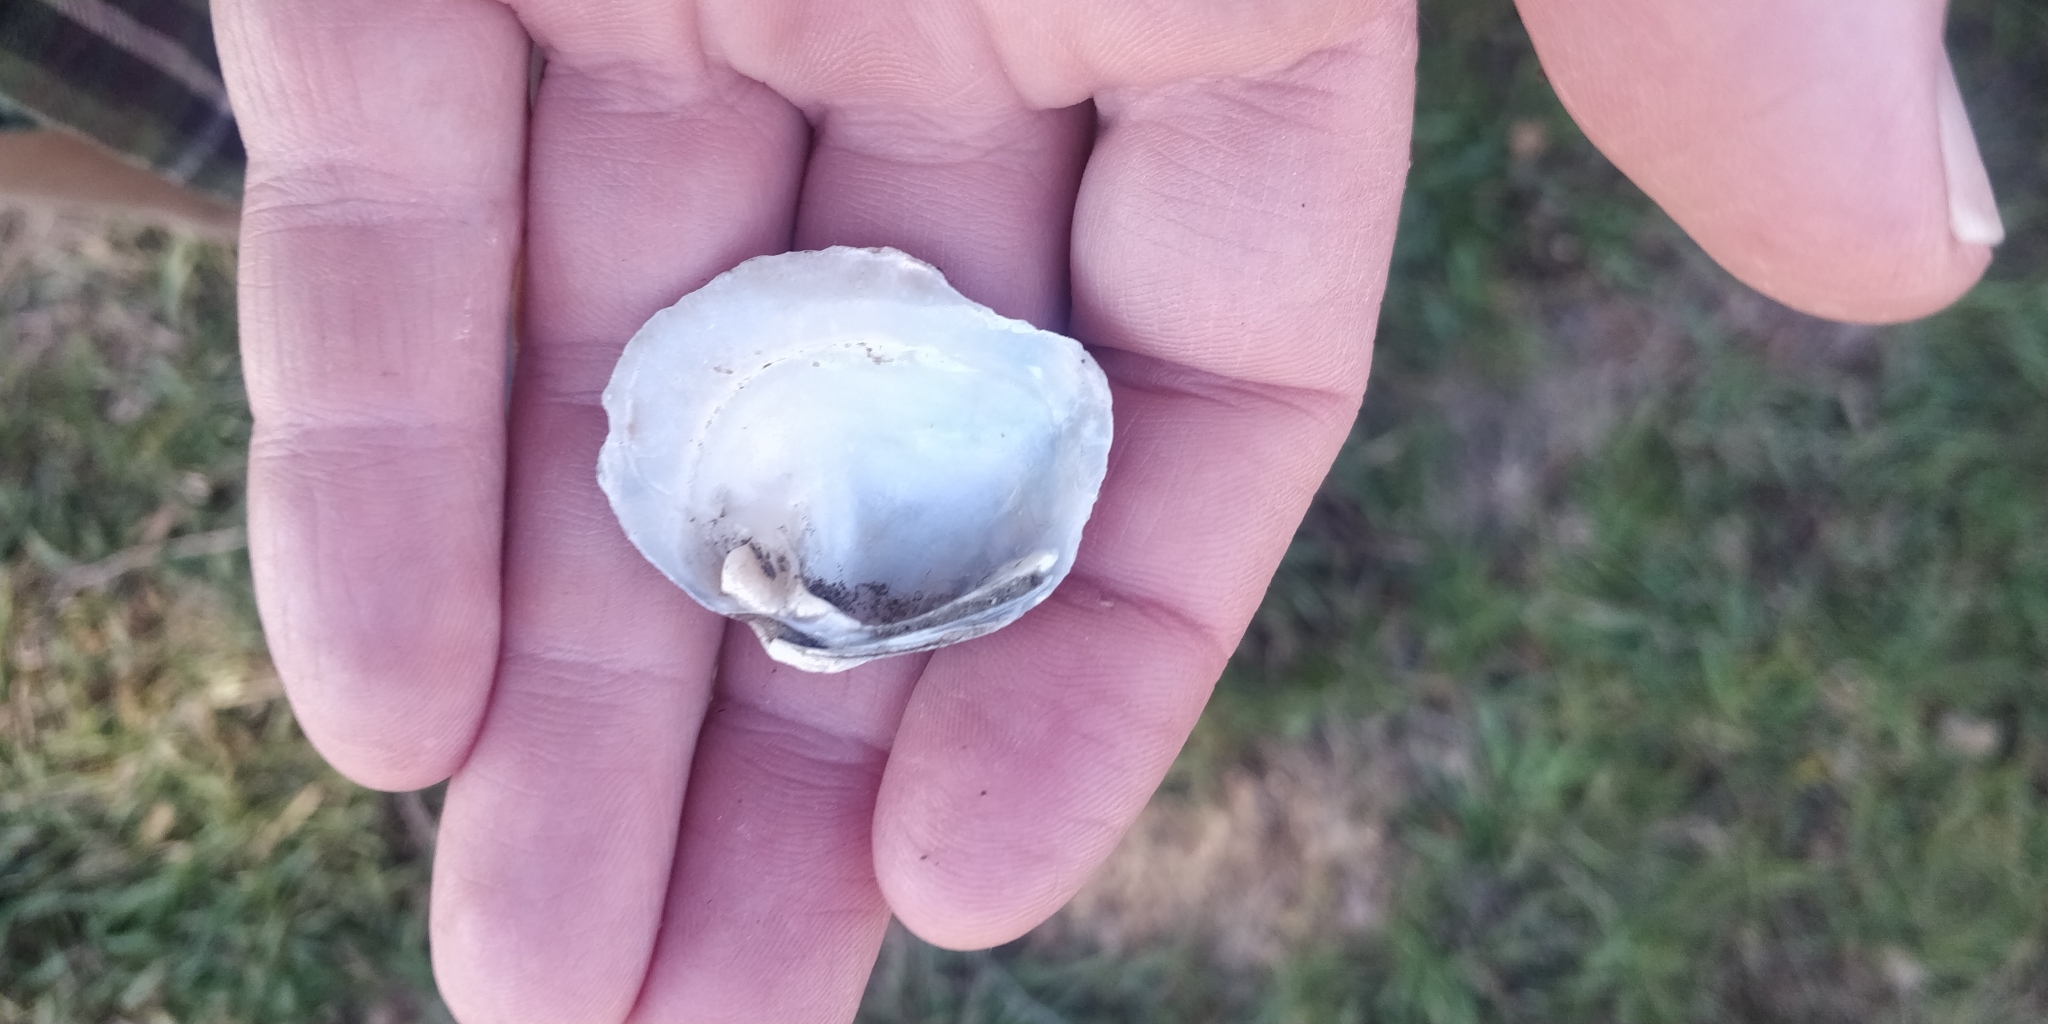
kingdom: Animalia
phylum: Mollusca
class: Bivalvia
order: Unionida
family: Unionidae
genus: Quadrula
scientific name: Quadrula quadrula
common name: Mapleleaf
